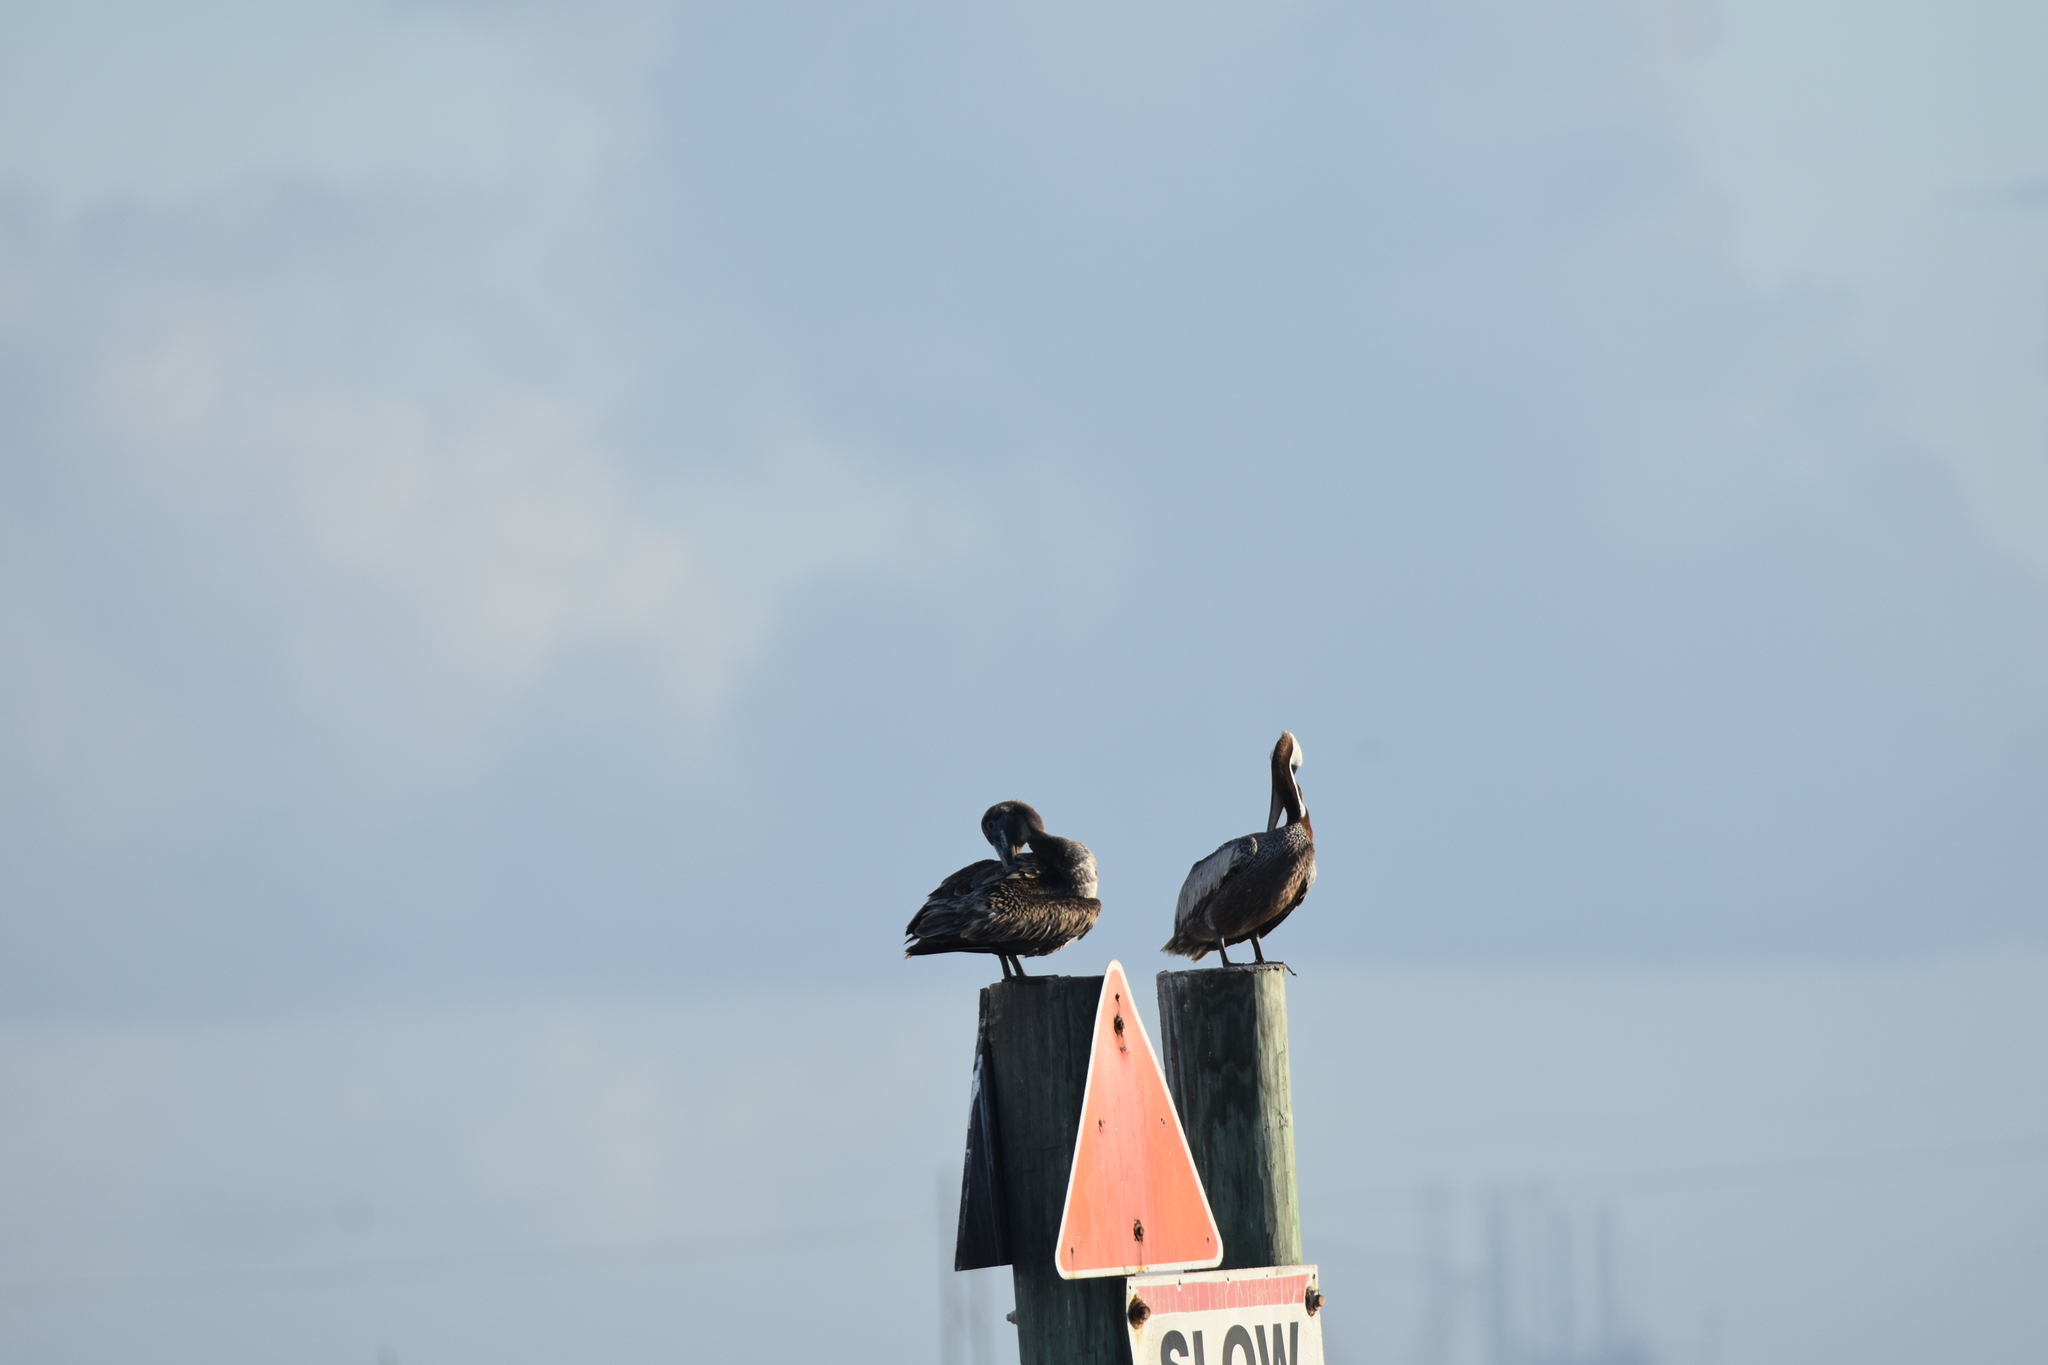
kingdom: Animalia
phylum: Chordata
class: Aves
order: Pelecaniformes
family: Pelecanidae
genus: Pelecanus
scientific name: Pelecanus occidentalis
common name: Brown pelican
